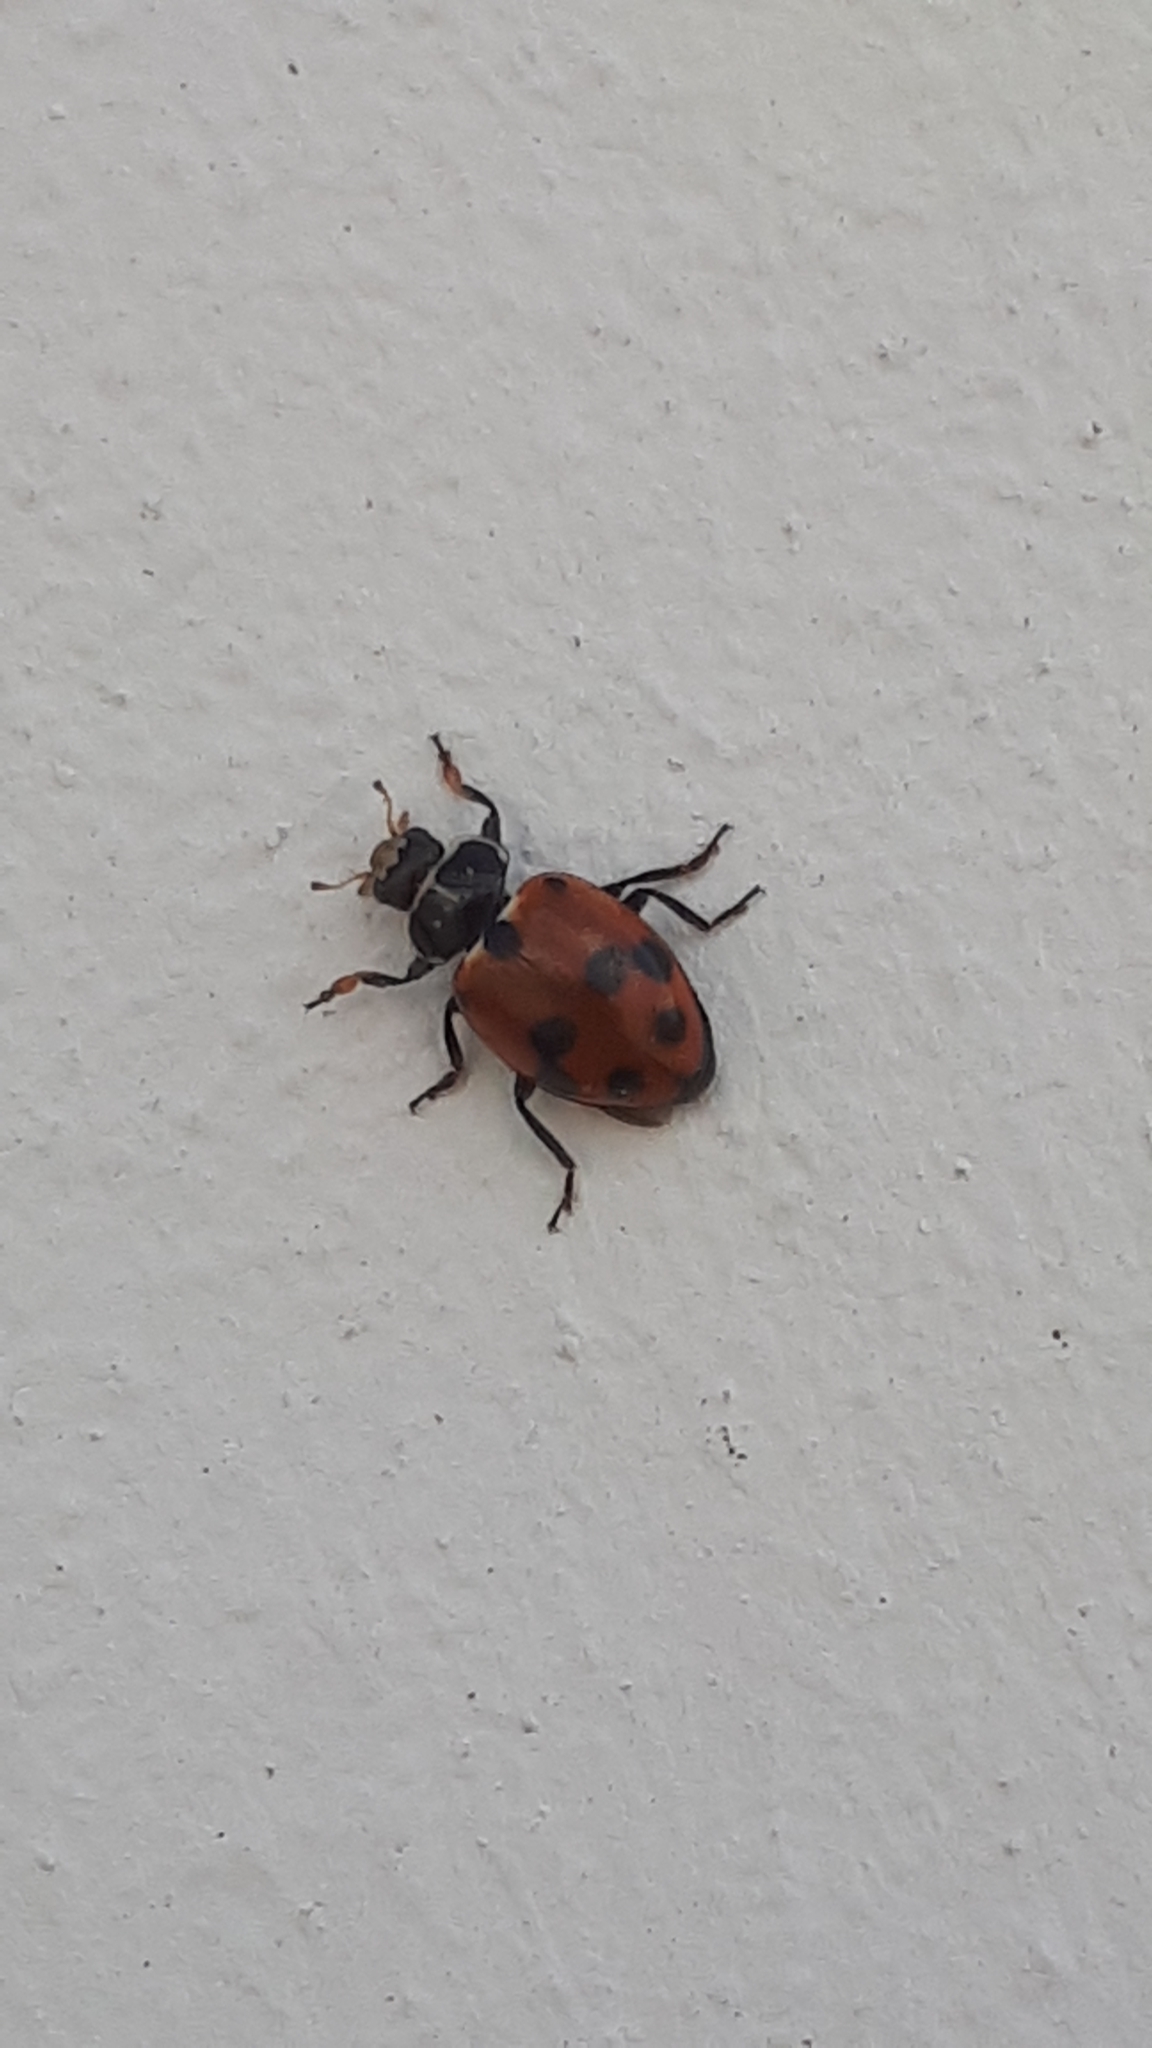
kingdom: Animalia
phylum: Arthropoda
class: Insecta
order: Coleoptera
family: Coccinellidae
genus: Hippodamia
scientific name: Hippodamia variegata
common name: Ladybird beetle
